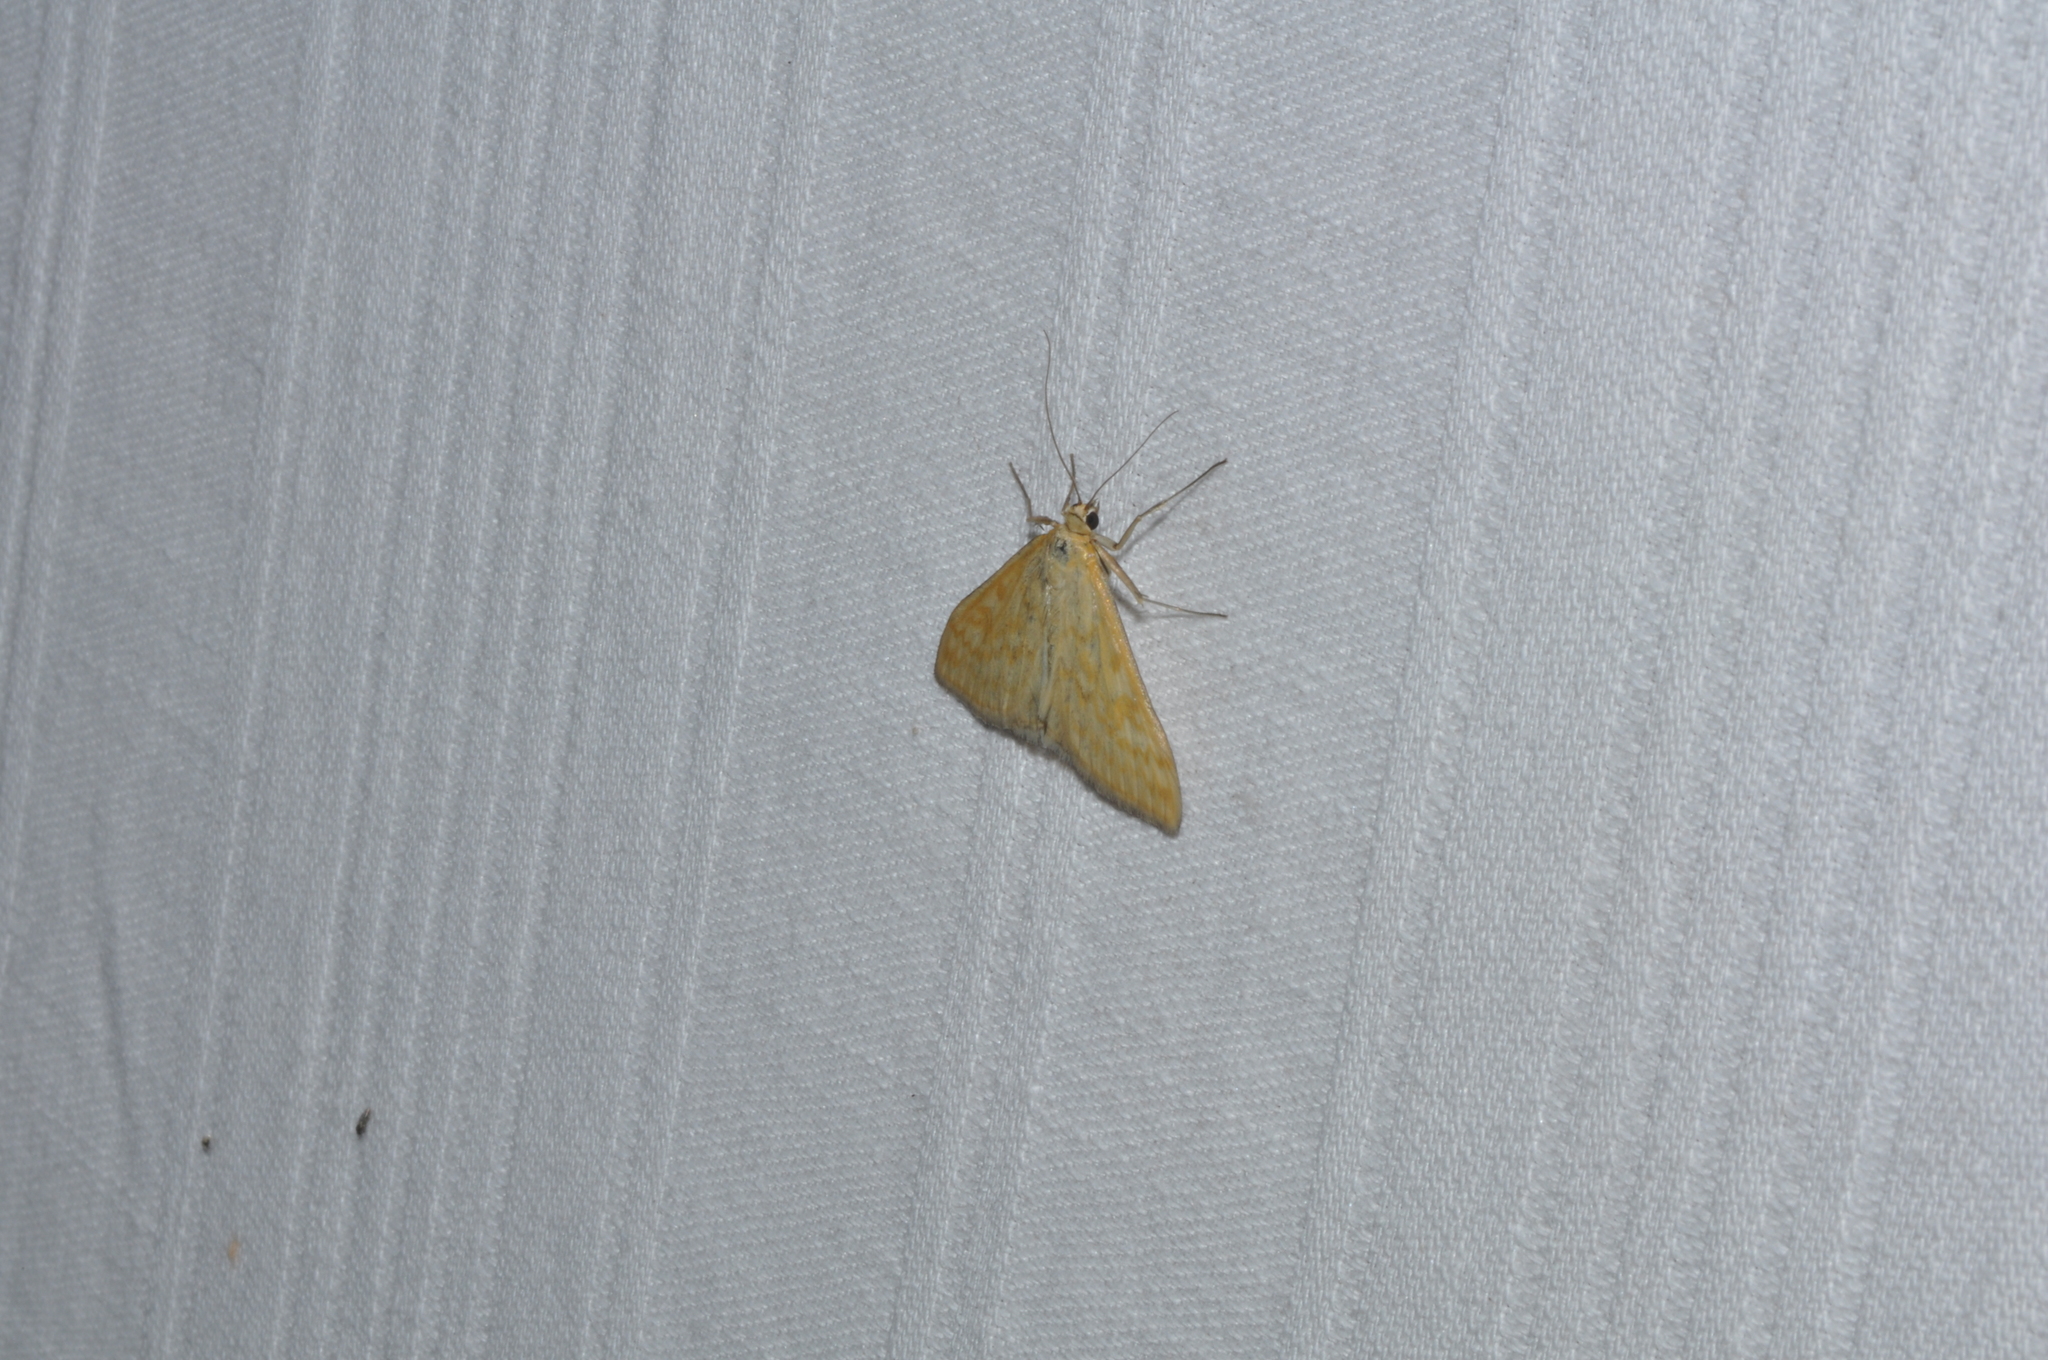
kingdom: Animalia
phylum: Arthropoda
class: Insecta
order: Lepidoptera
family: Crambidae
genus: Sitochroa
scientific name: Sitochroa verticalis
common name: Lesser pearl
